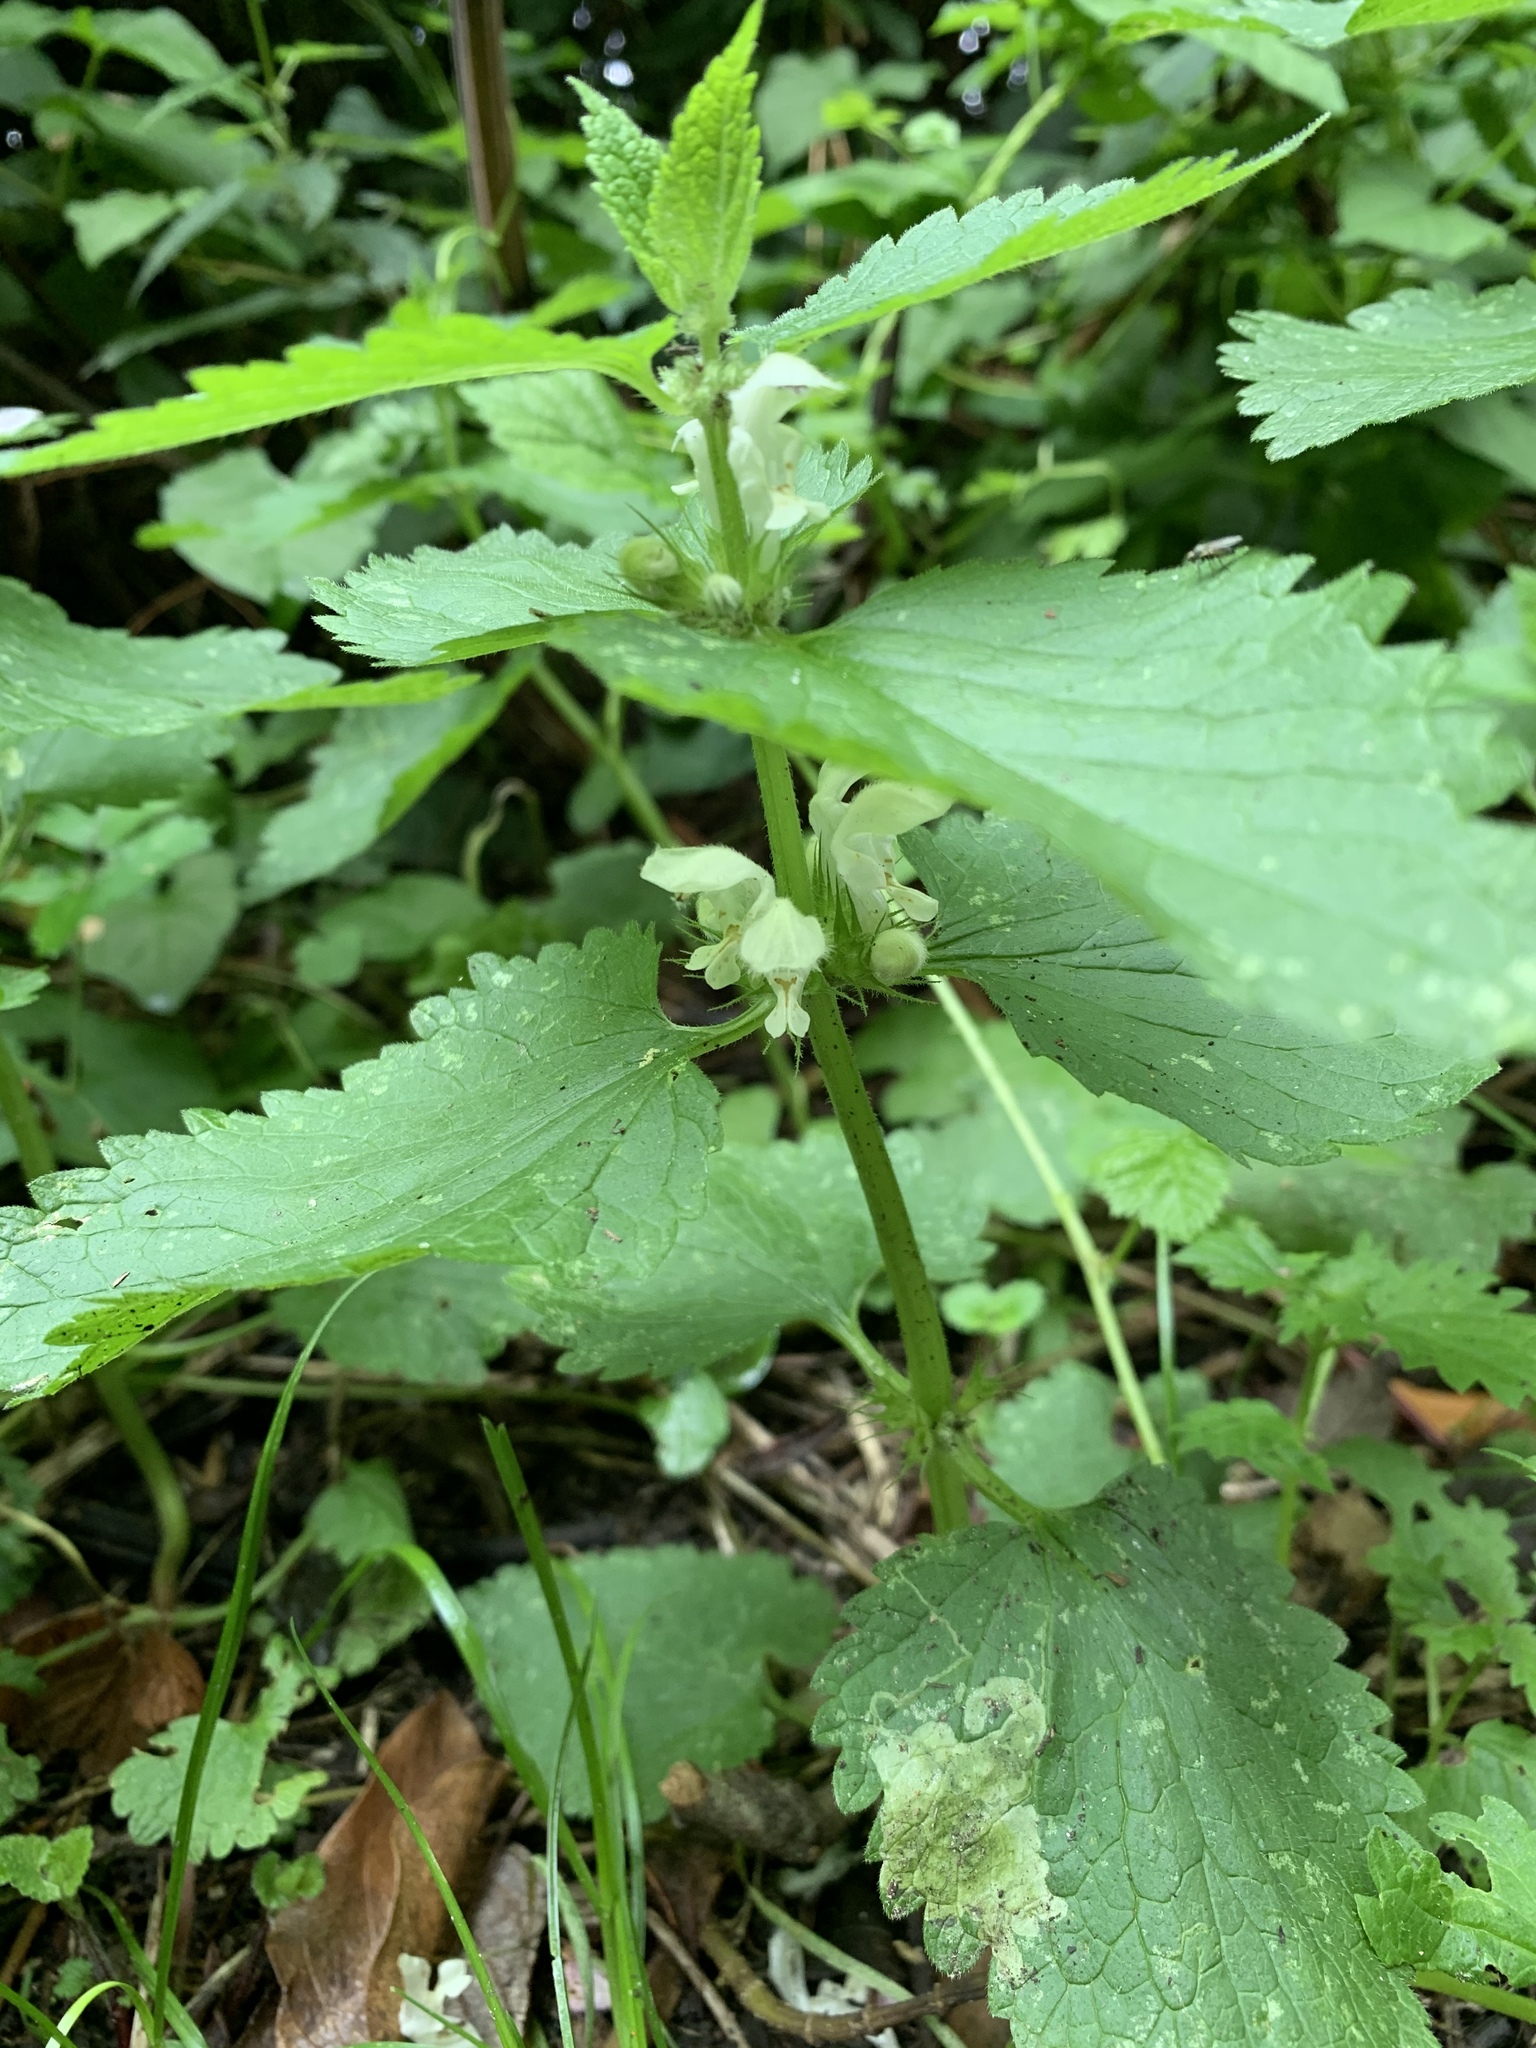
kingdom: Plantae
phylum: Tracheophyta
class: Magnoliopsida
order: Lamiales
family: Lamiaceae
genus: Lamium
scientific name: Lamium album
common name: White dead-nettle
